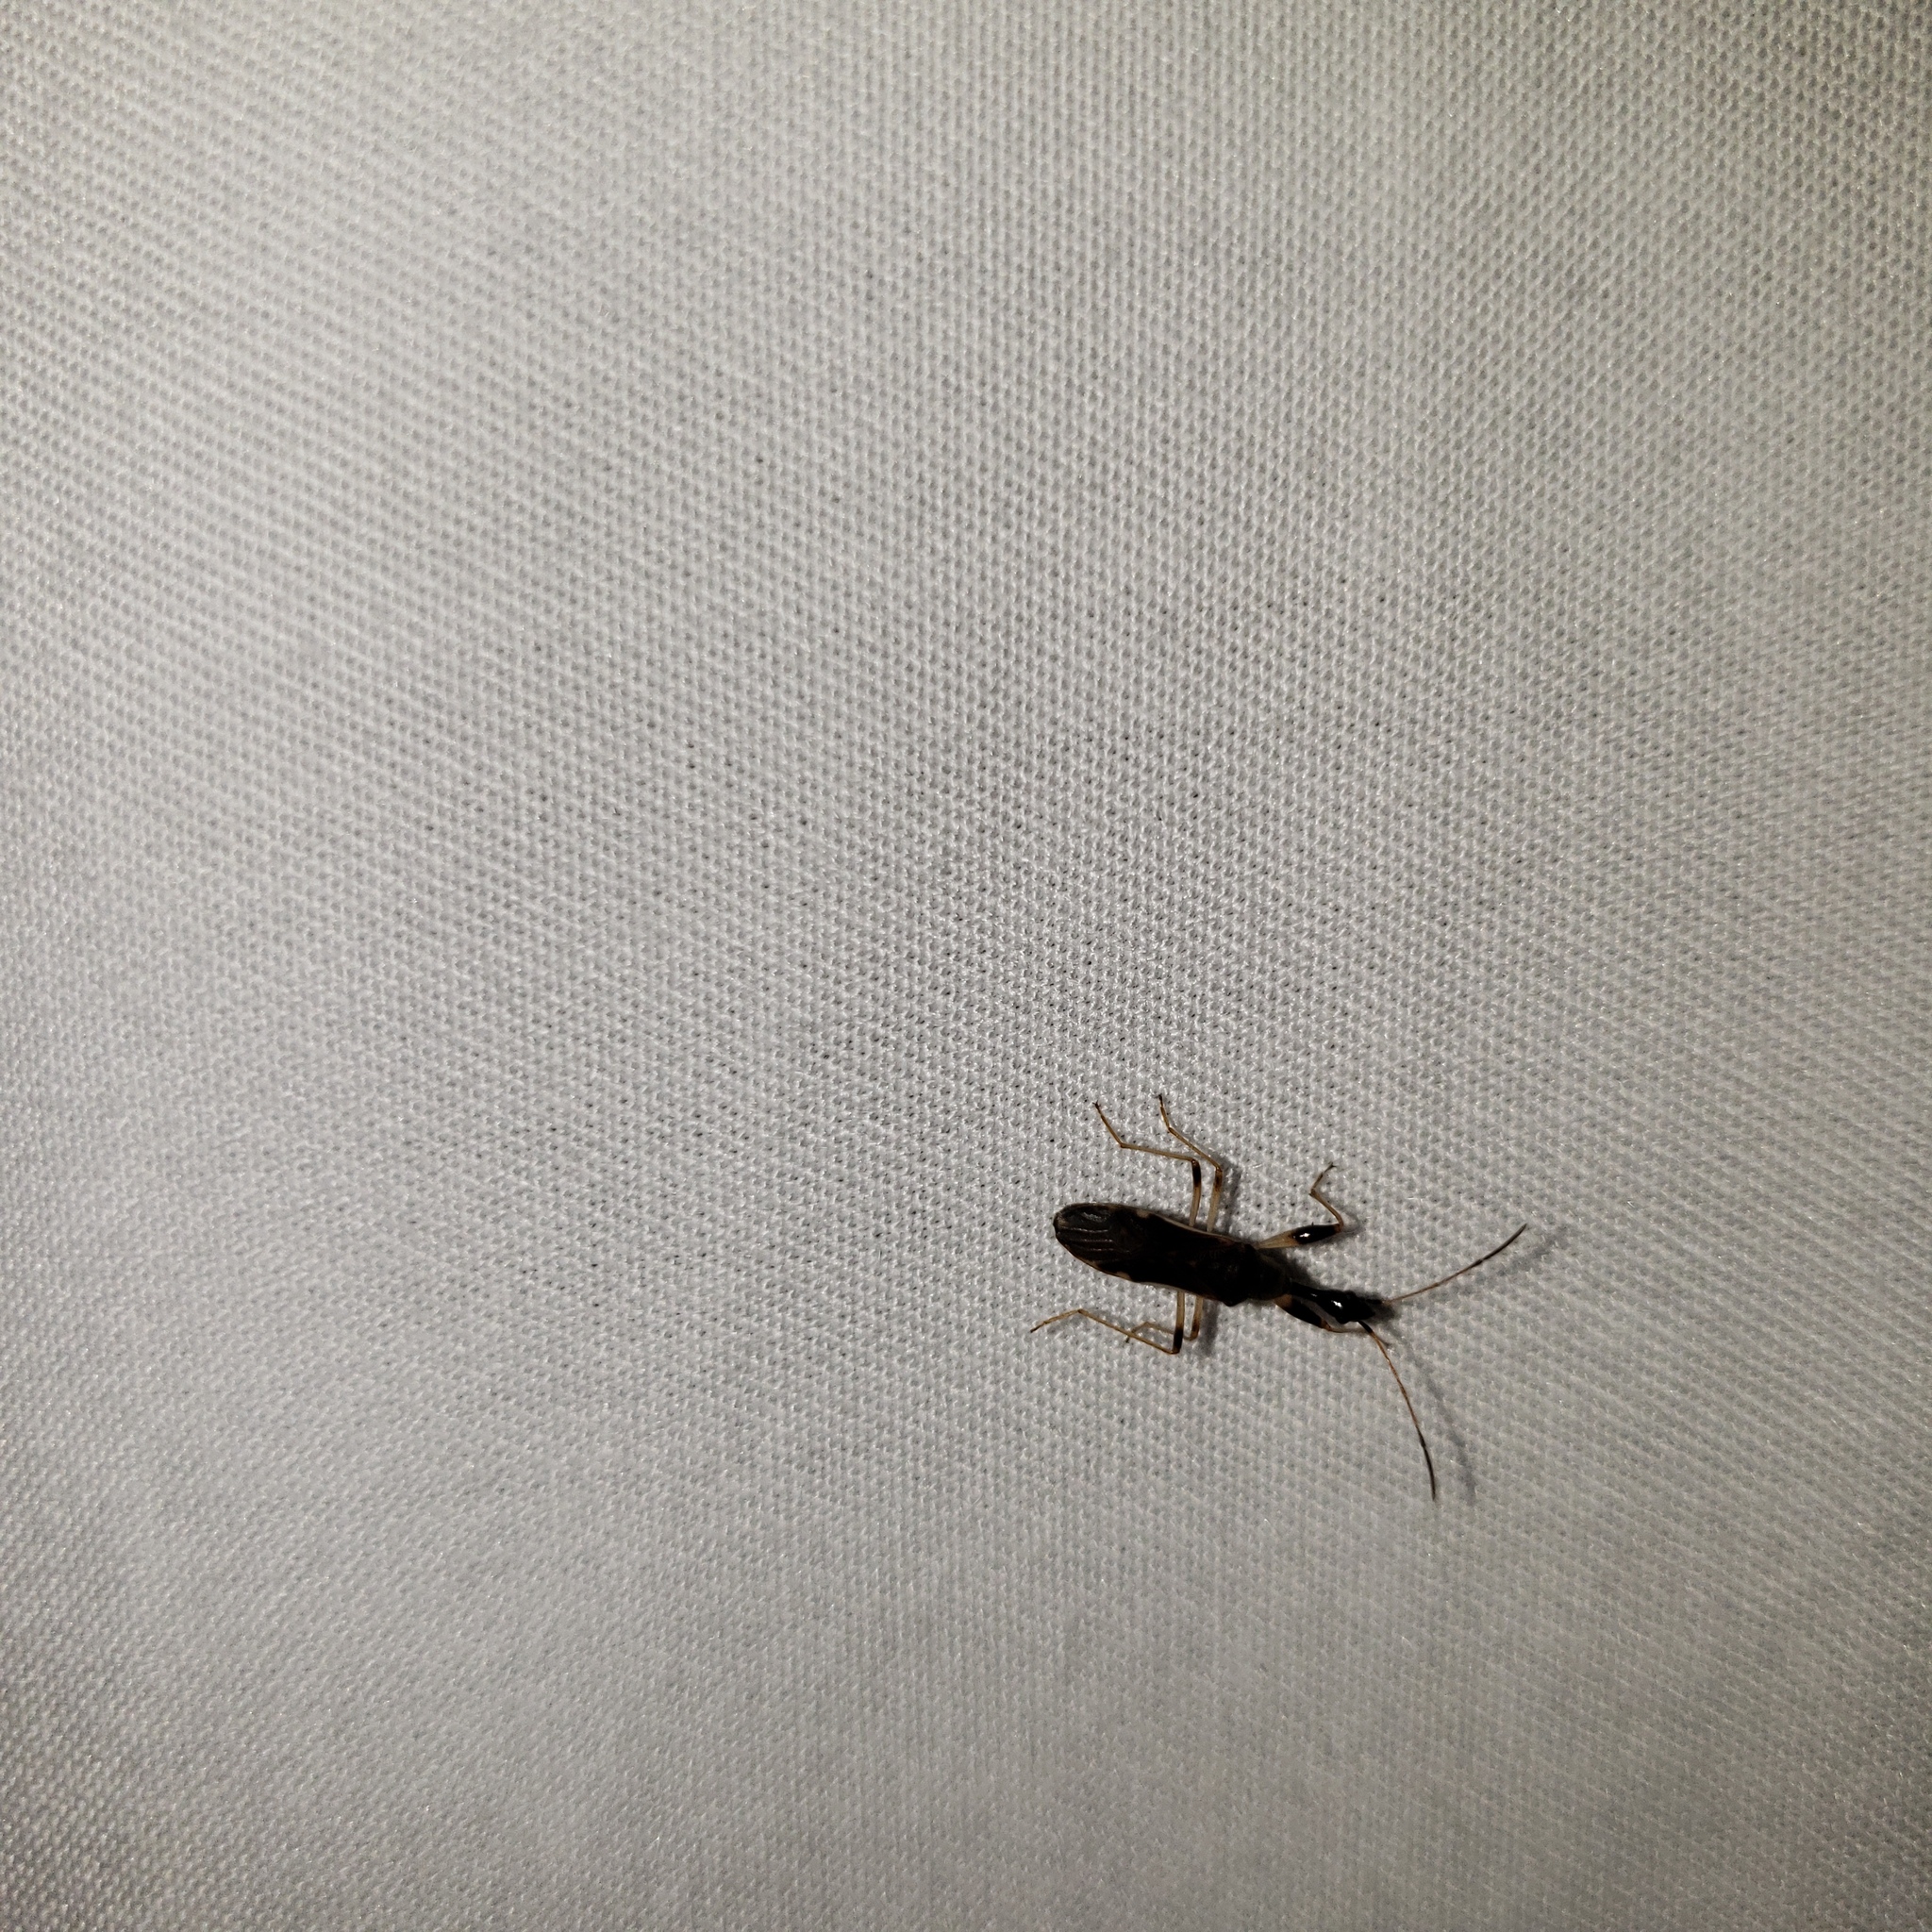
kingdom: Animalia
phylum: Arthropoda
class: Insecta
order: Hemiptera
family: Rhyparochromidae
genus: Myodocha
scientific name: Myodocha serripes
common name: Long-necked seed bug
